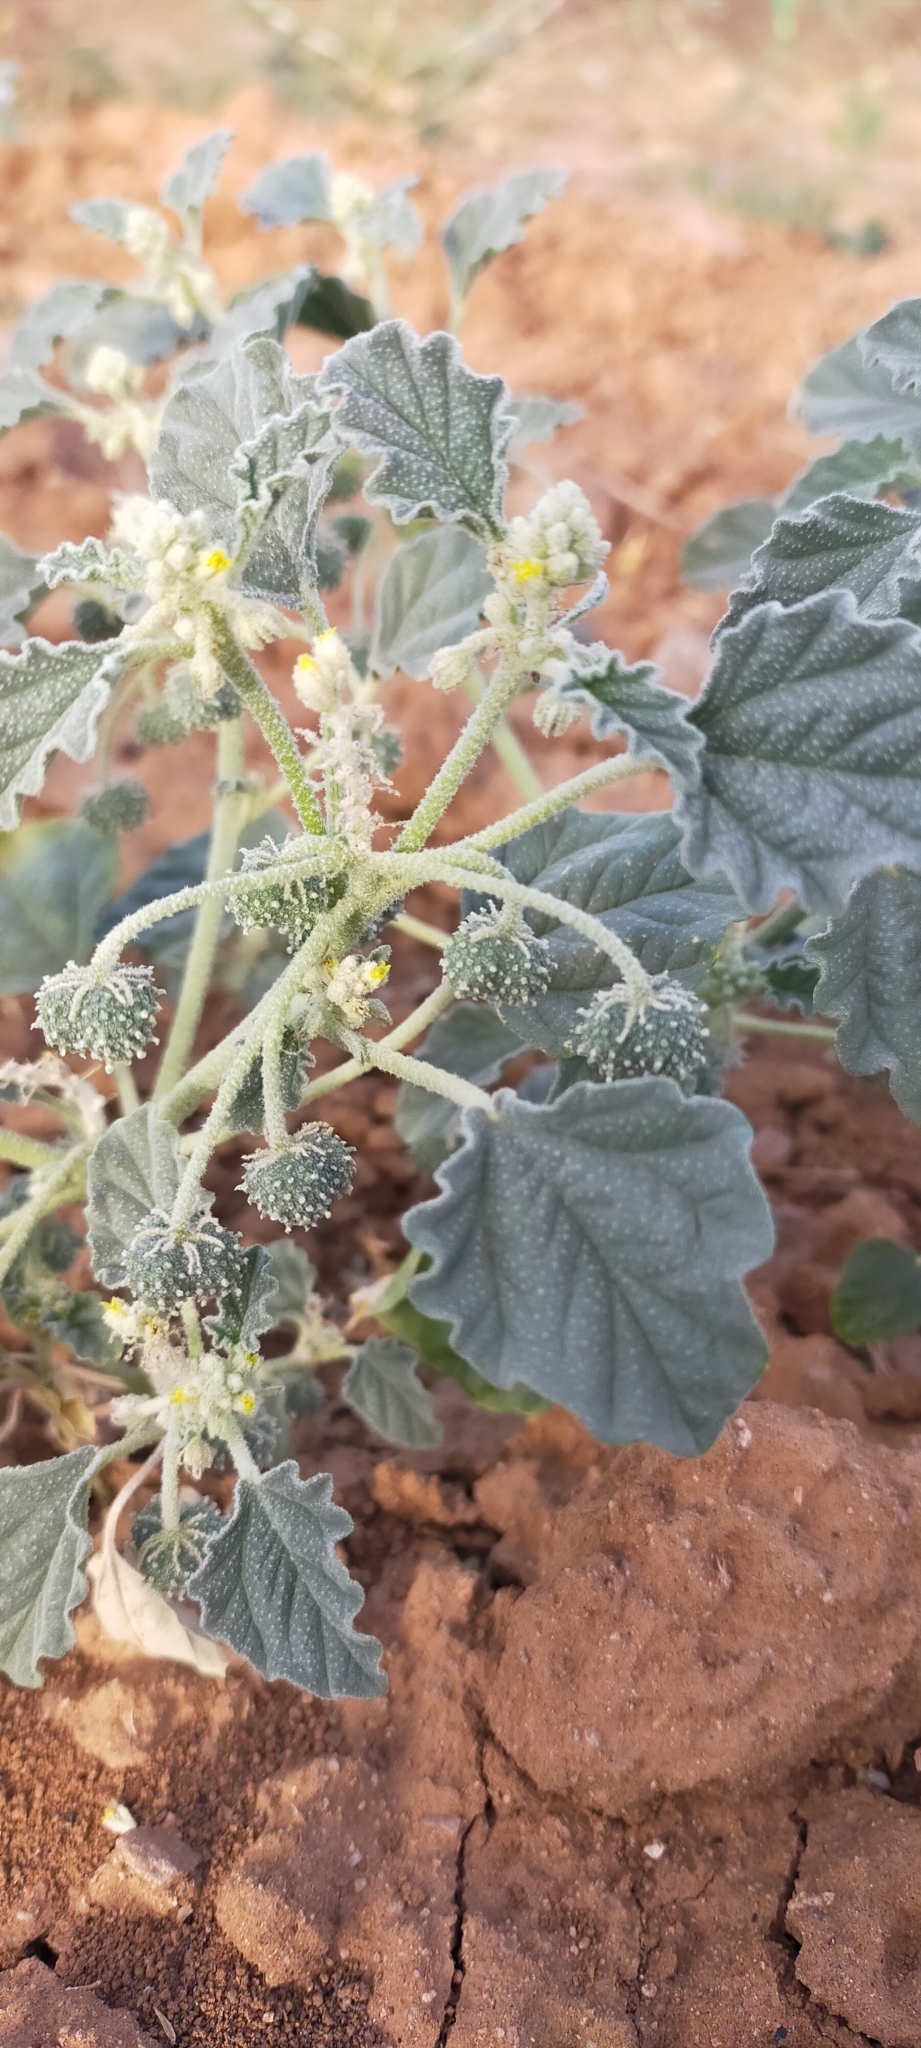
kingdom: Plantae
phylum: Tracheophyta
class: Magnoliopsida
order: Malpighiales
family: Euphorbiaceae
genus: Chrozophora
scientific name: Chrozophora tinctoria
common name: Dyer's litmus
